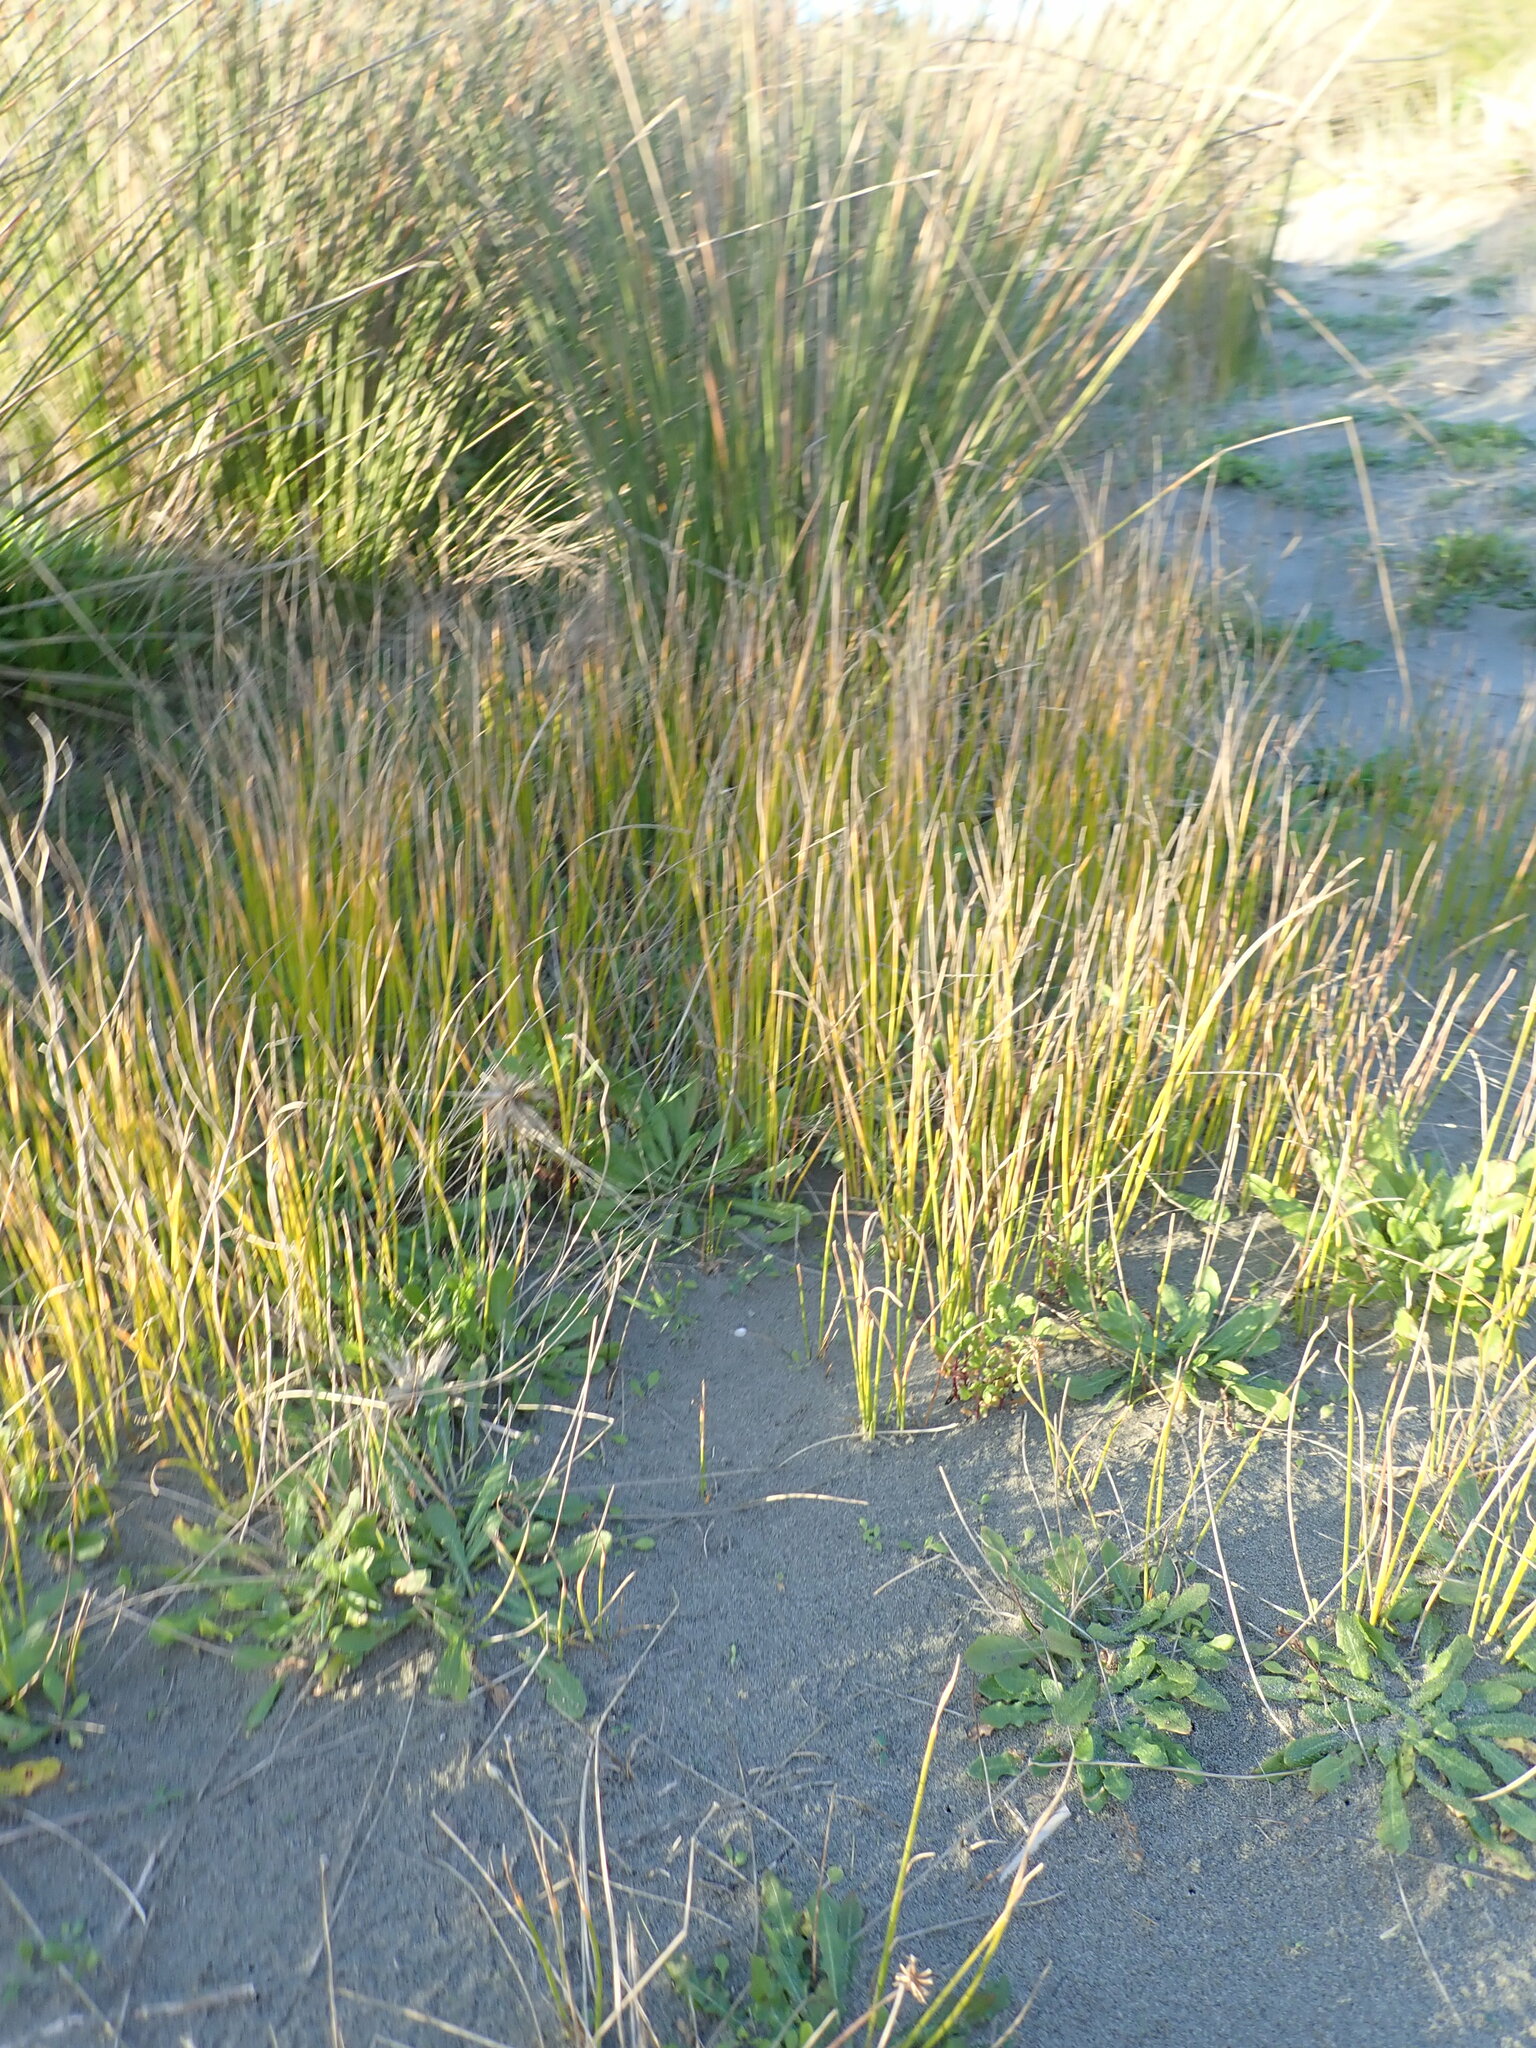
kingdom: Plantae
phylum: Tracheophyta
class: Liliopsida
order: Poales
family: Cyperaceae
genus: Ficinia
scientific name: Ficinia nodosa
